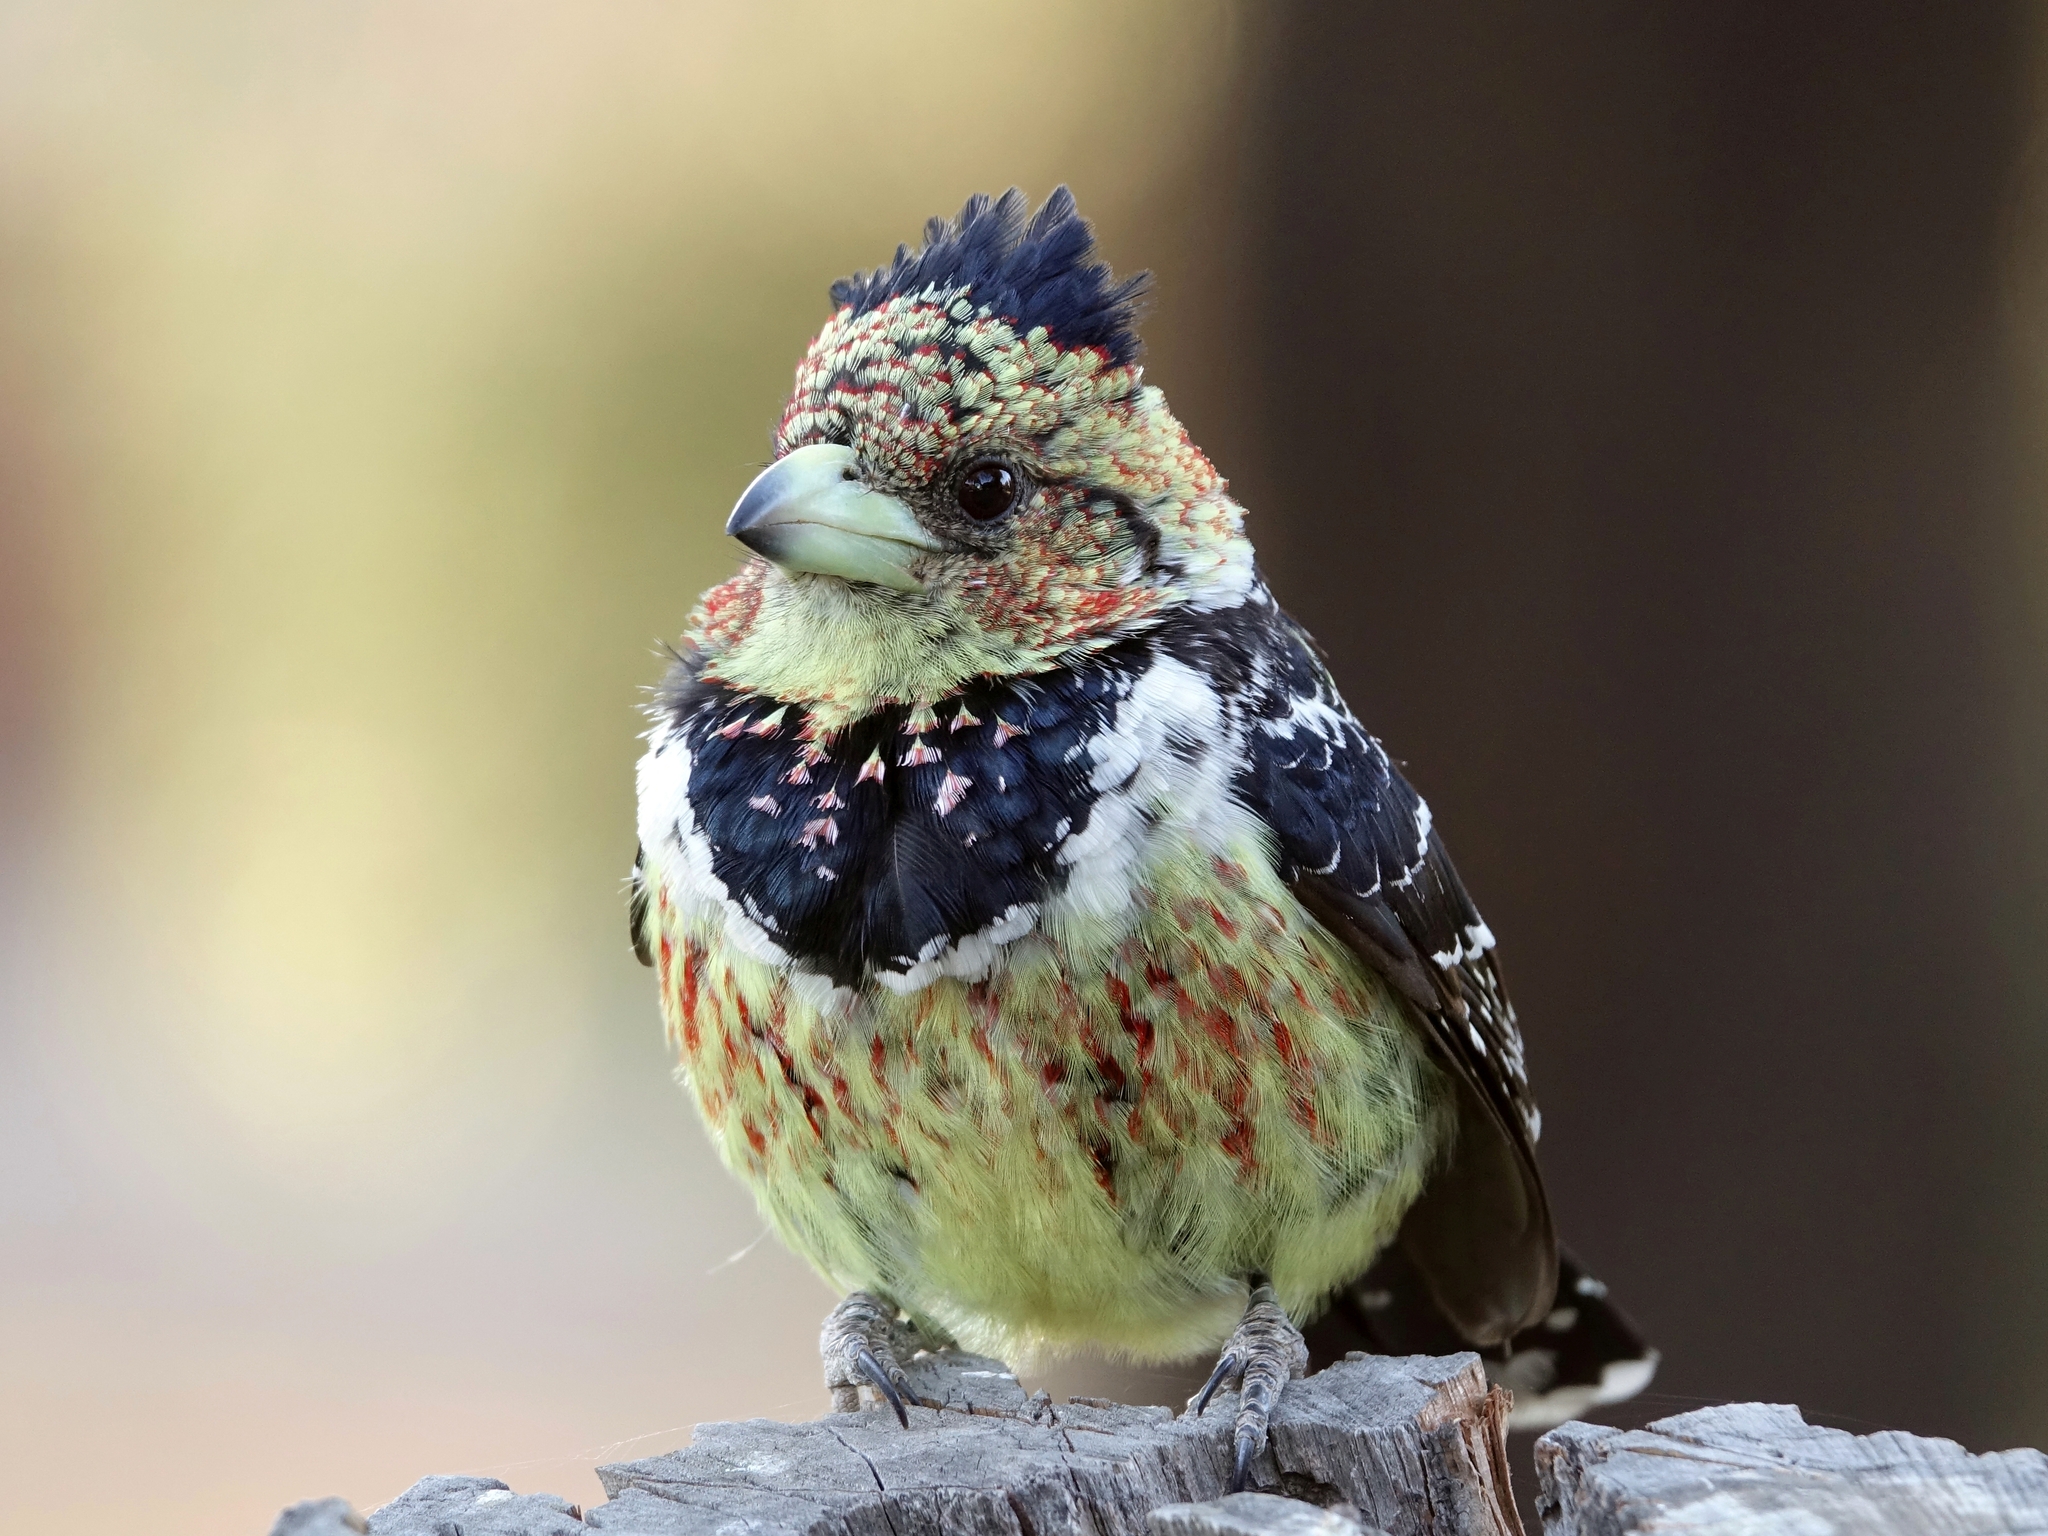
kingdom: Animalia
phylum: Chordata
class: Aves
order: Piciformes
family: Lybiidae
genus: Trachyphonus
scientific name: Trachyphonus vaillantii
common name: Crested barbet
